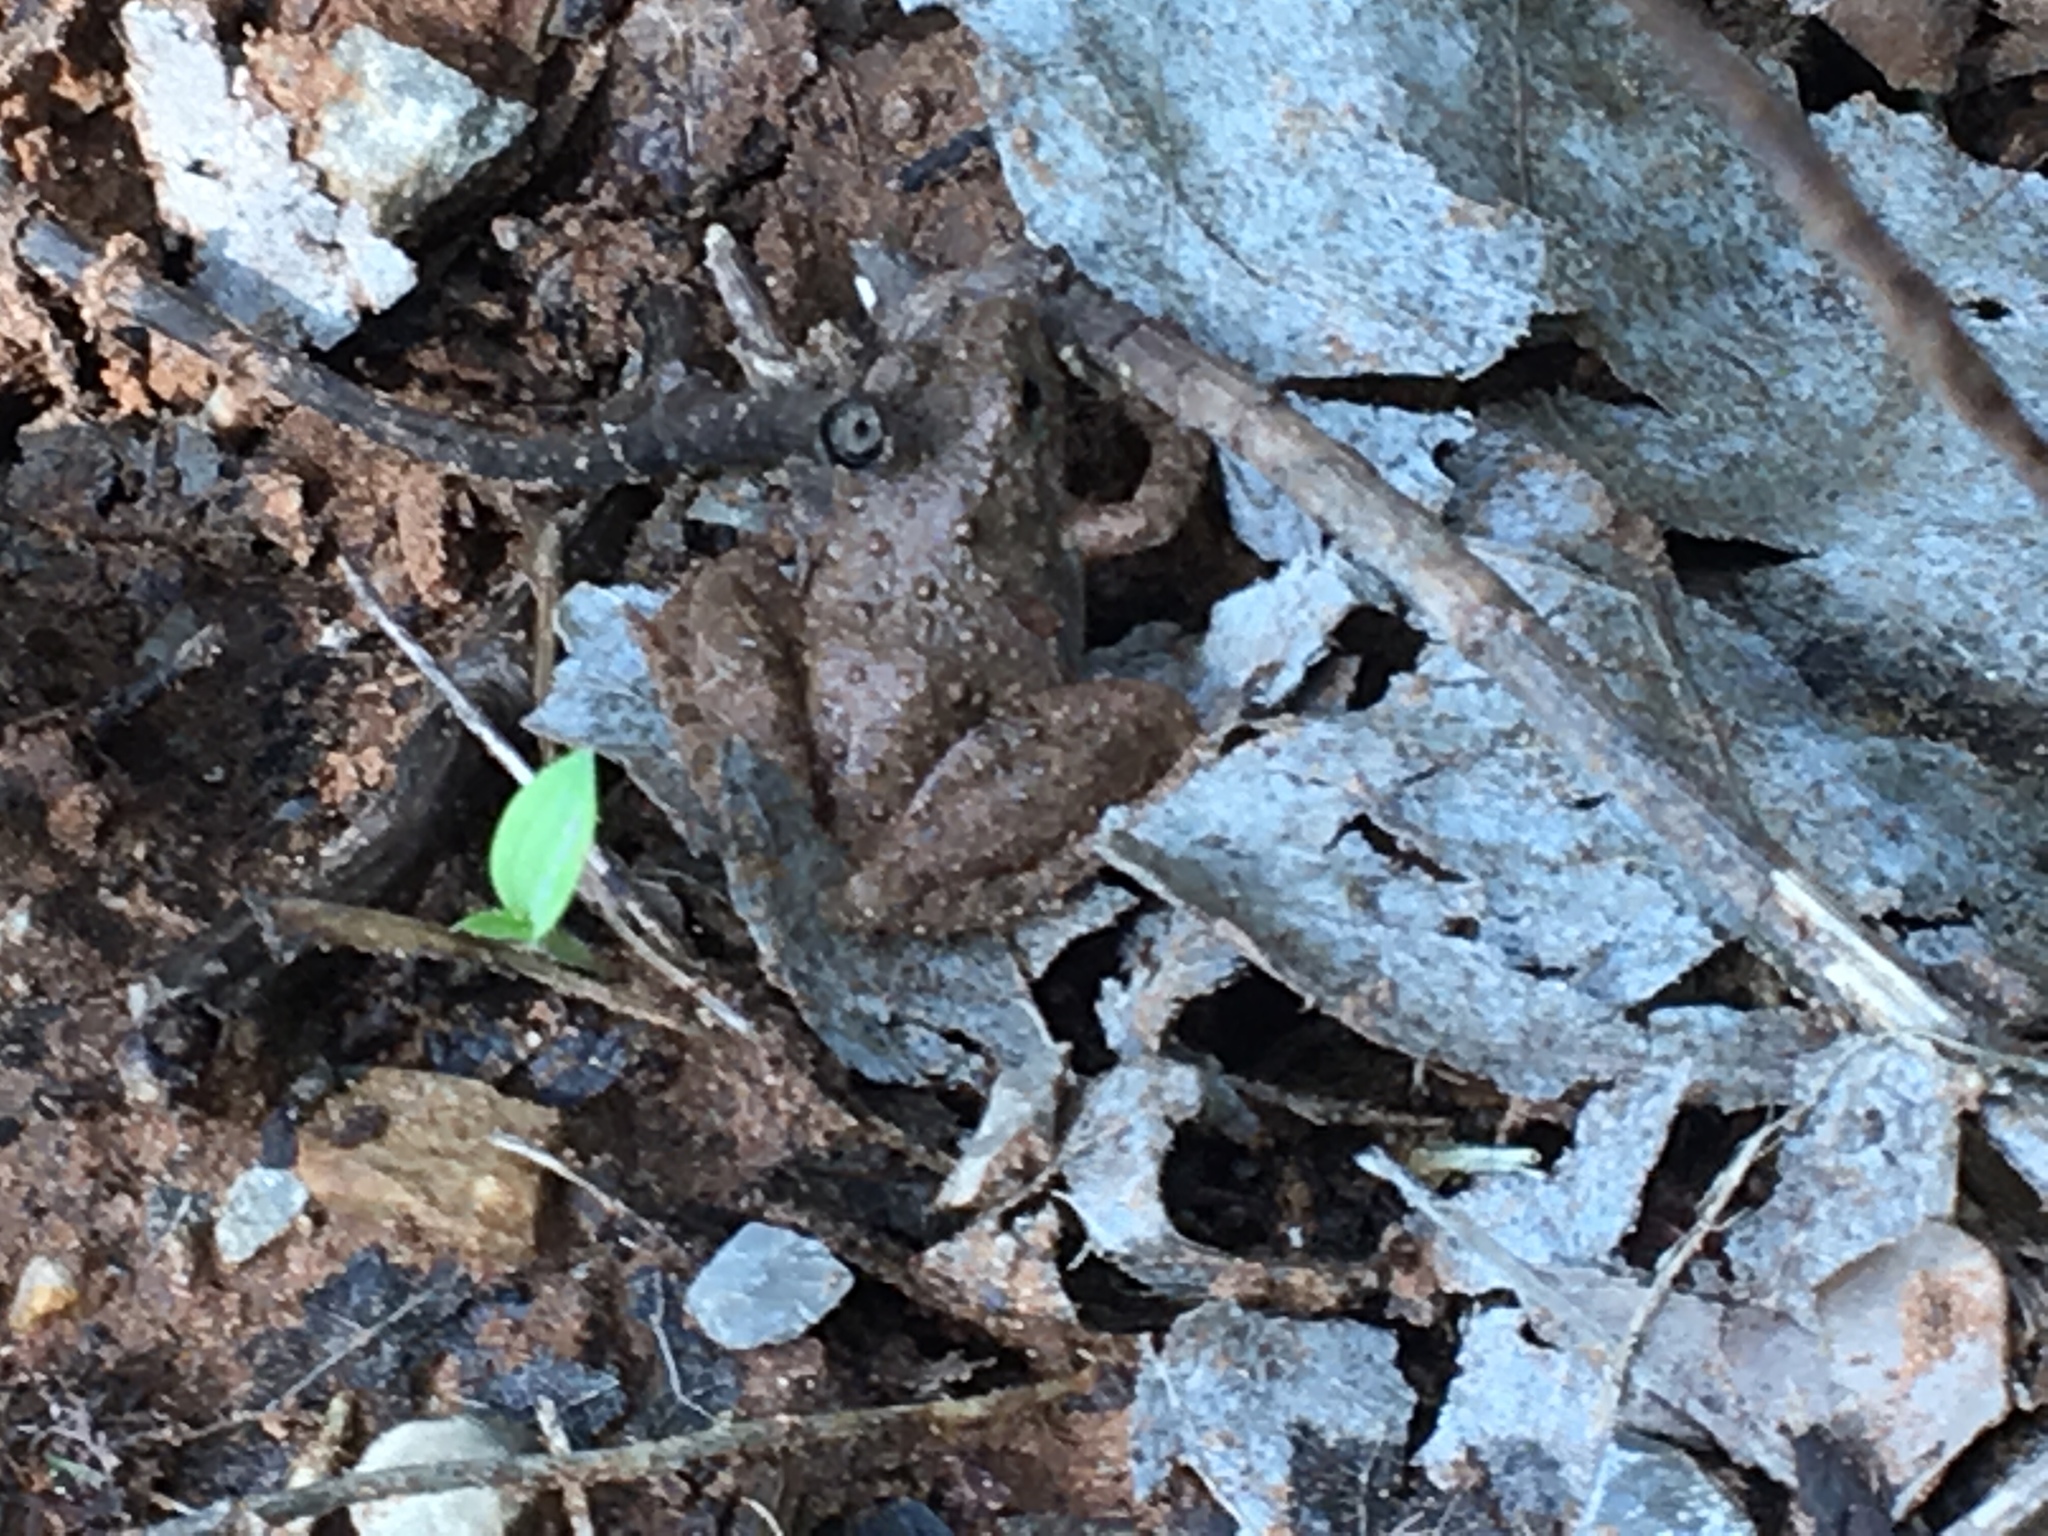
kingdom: Animalia
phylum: Chordata
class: Amphibia
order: Anura
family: Hylidae
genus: Acris
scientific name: Acris blanchardi
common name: Blanchard's cricket frog
